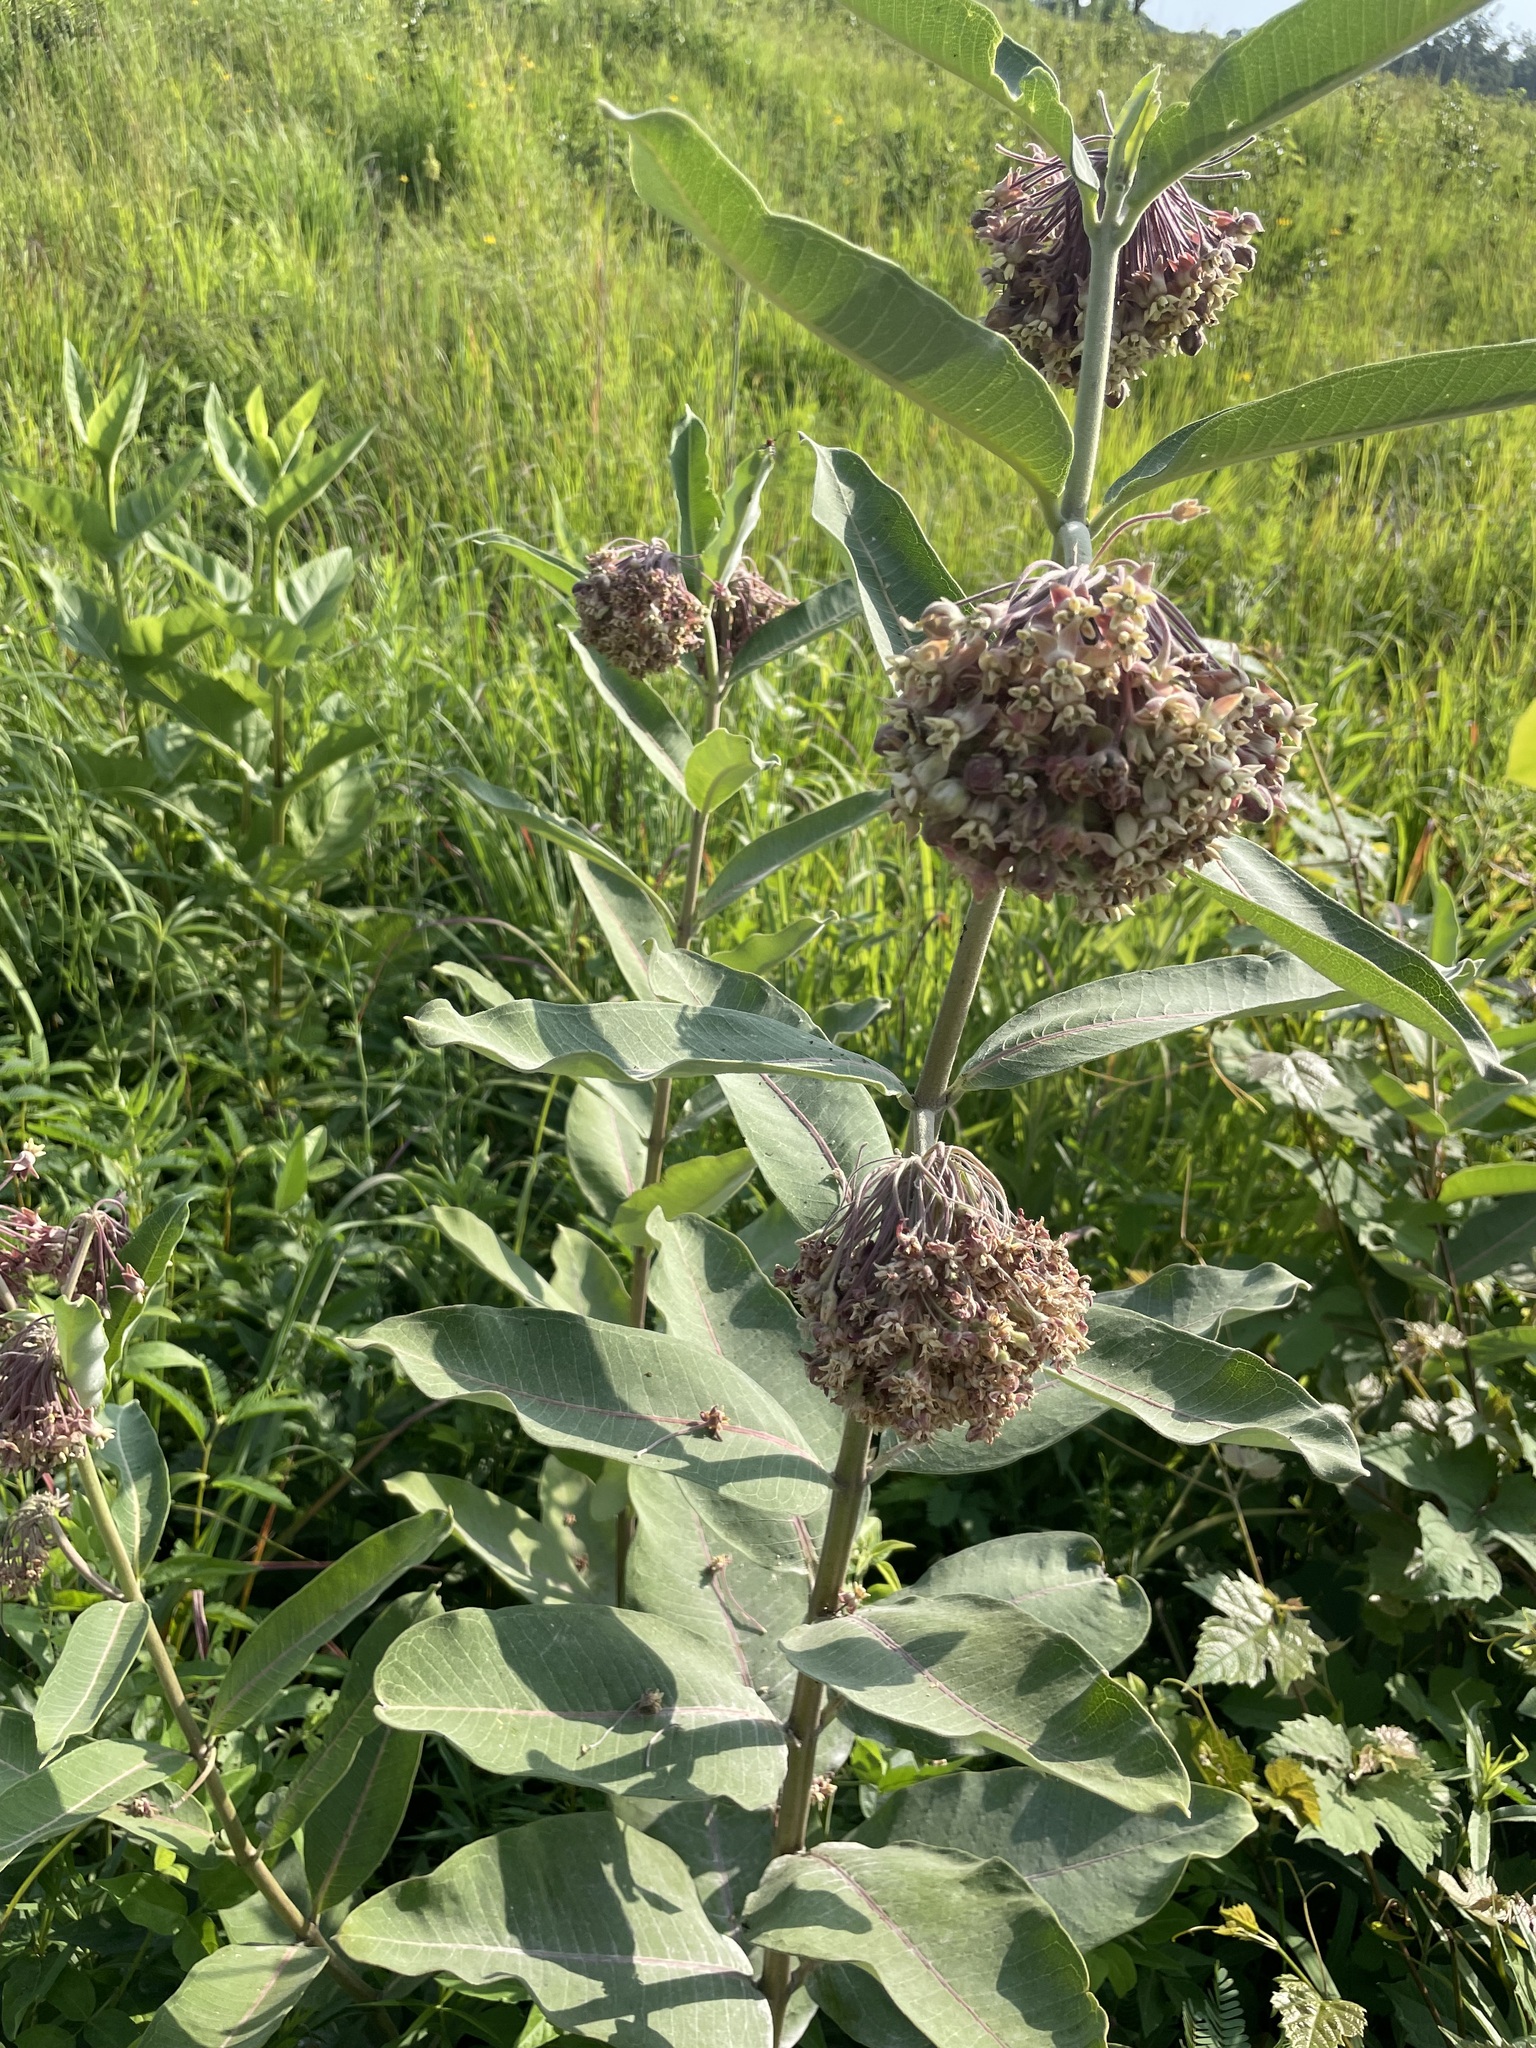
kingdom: Plantae
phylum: Tracheophyta
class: Magnoliopsida
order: Gentianales
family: Apocynaceae
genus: Asclepias
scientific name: Asclepias syriaca
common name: Common milkweed
